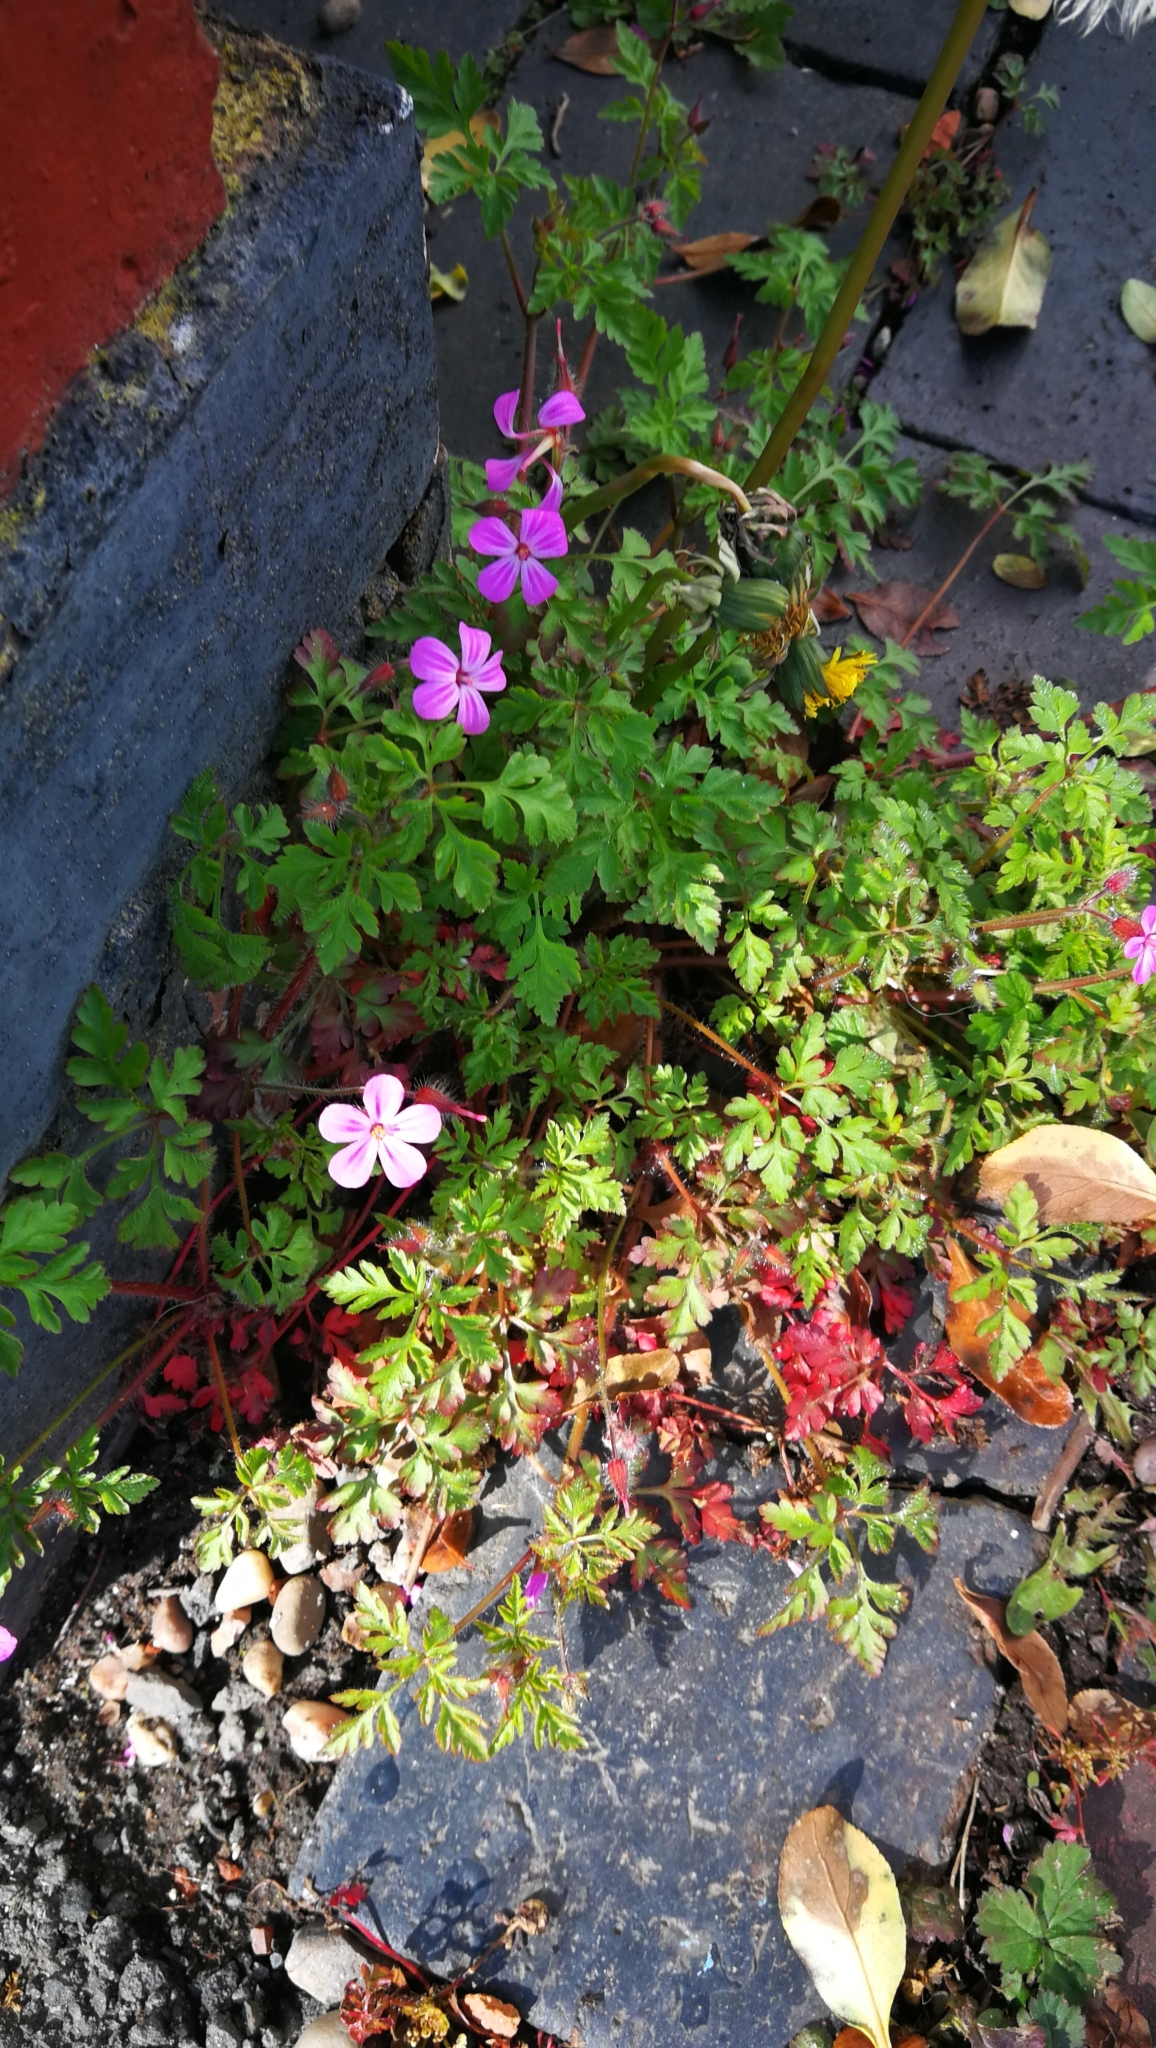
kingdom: Plantae
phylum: Tracheophyta
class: Magnoliopsida
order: Geraniales
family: Geraniaceae
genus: Geranium
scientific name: Geranium robertianum
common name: Herb-robert
